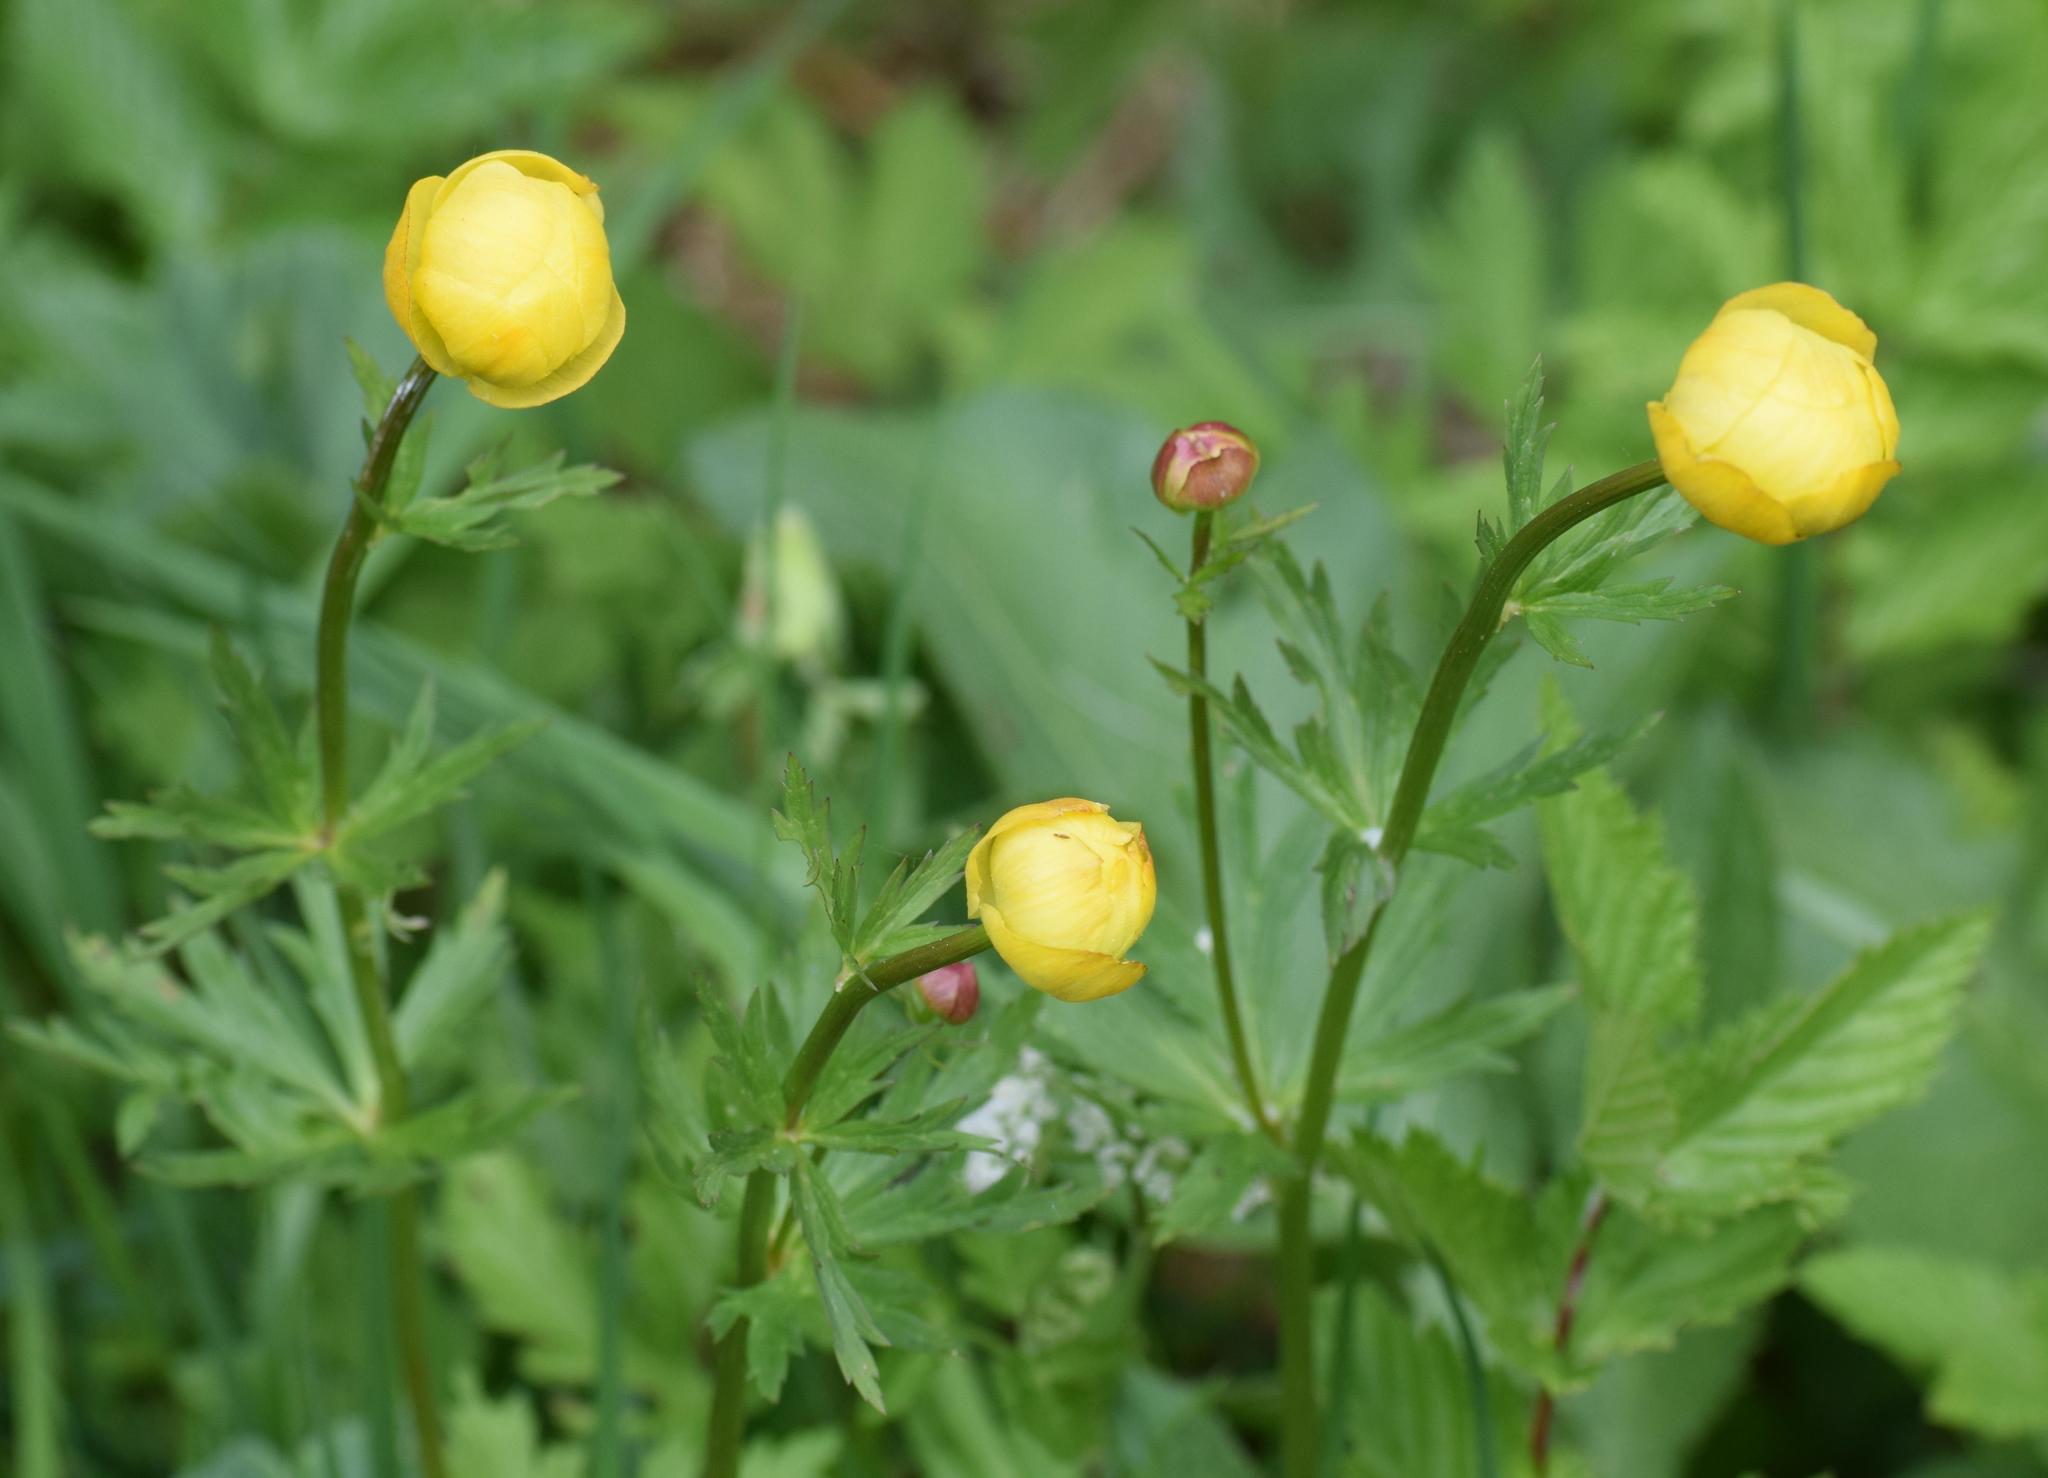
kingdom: Plantae
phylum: Tracheophyta
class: Magnoliopsida
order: Ranunculales
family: Ranunculaceae
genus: Trollius
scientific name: Trollius europaeus
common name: European globeflower
